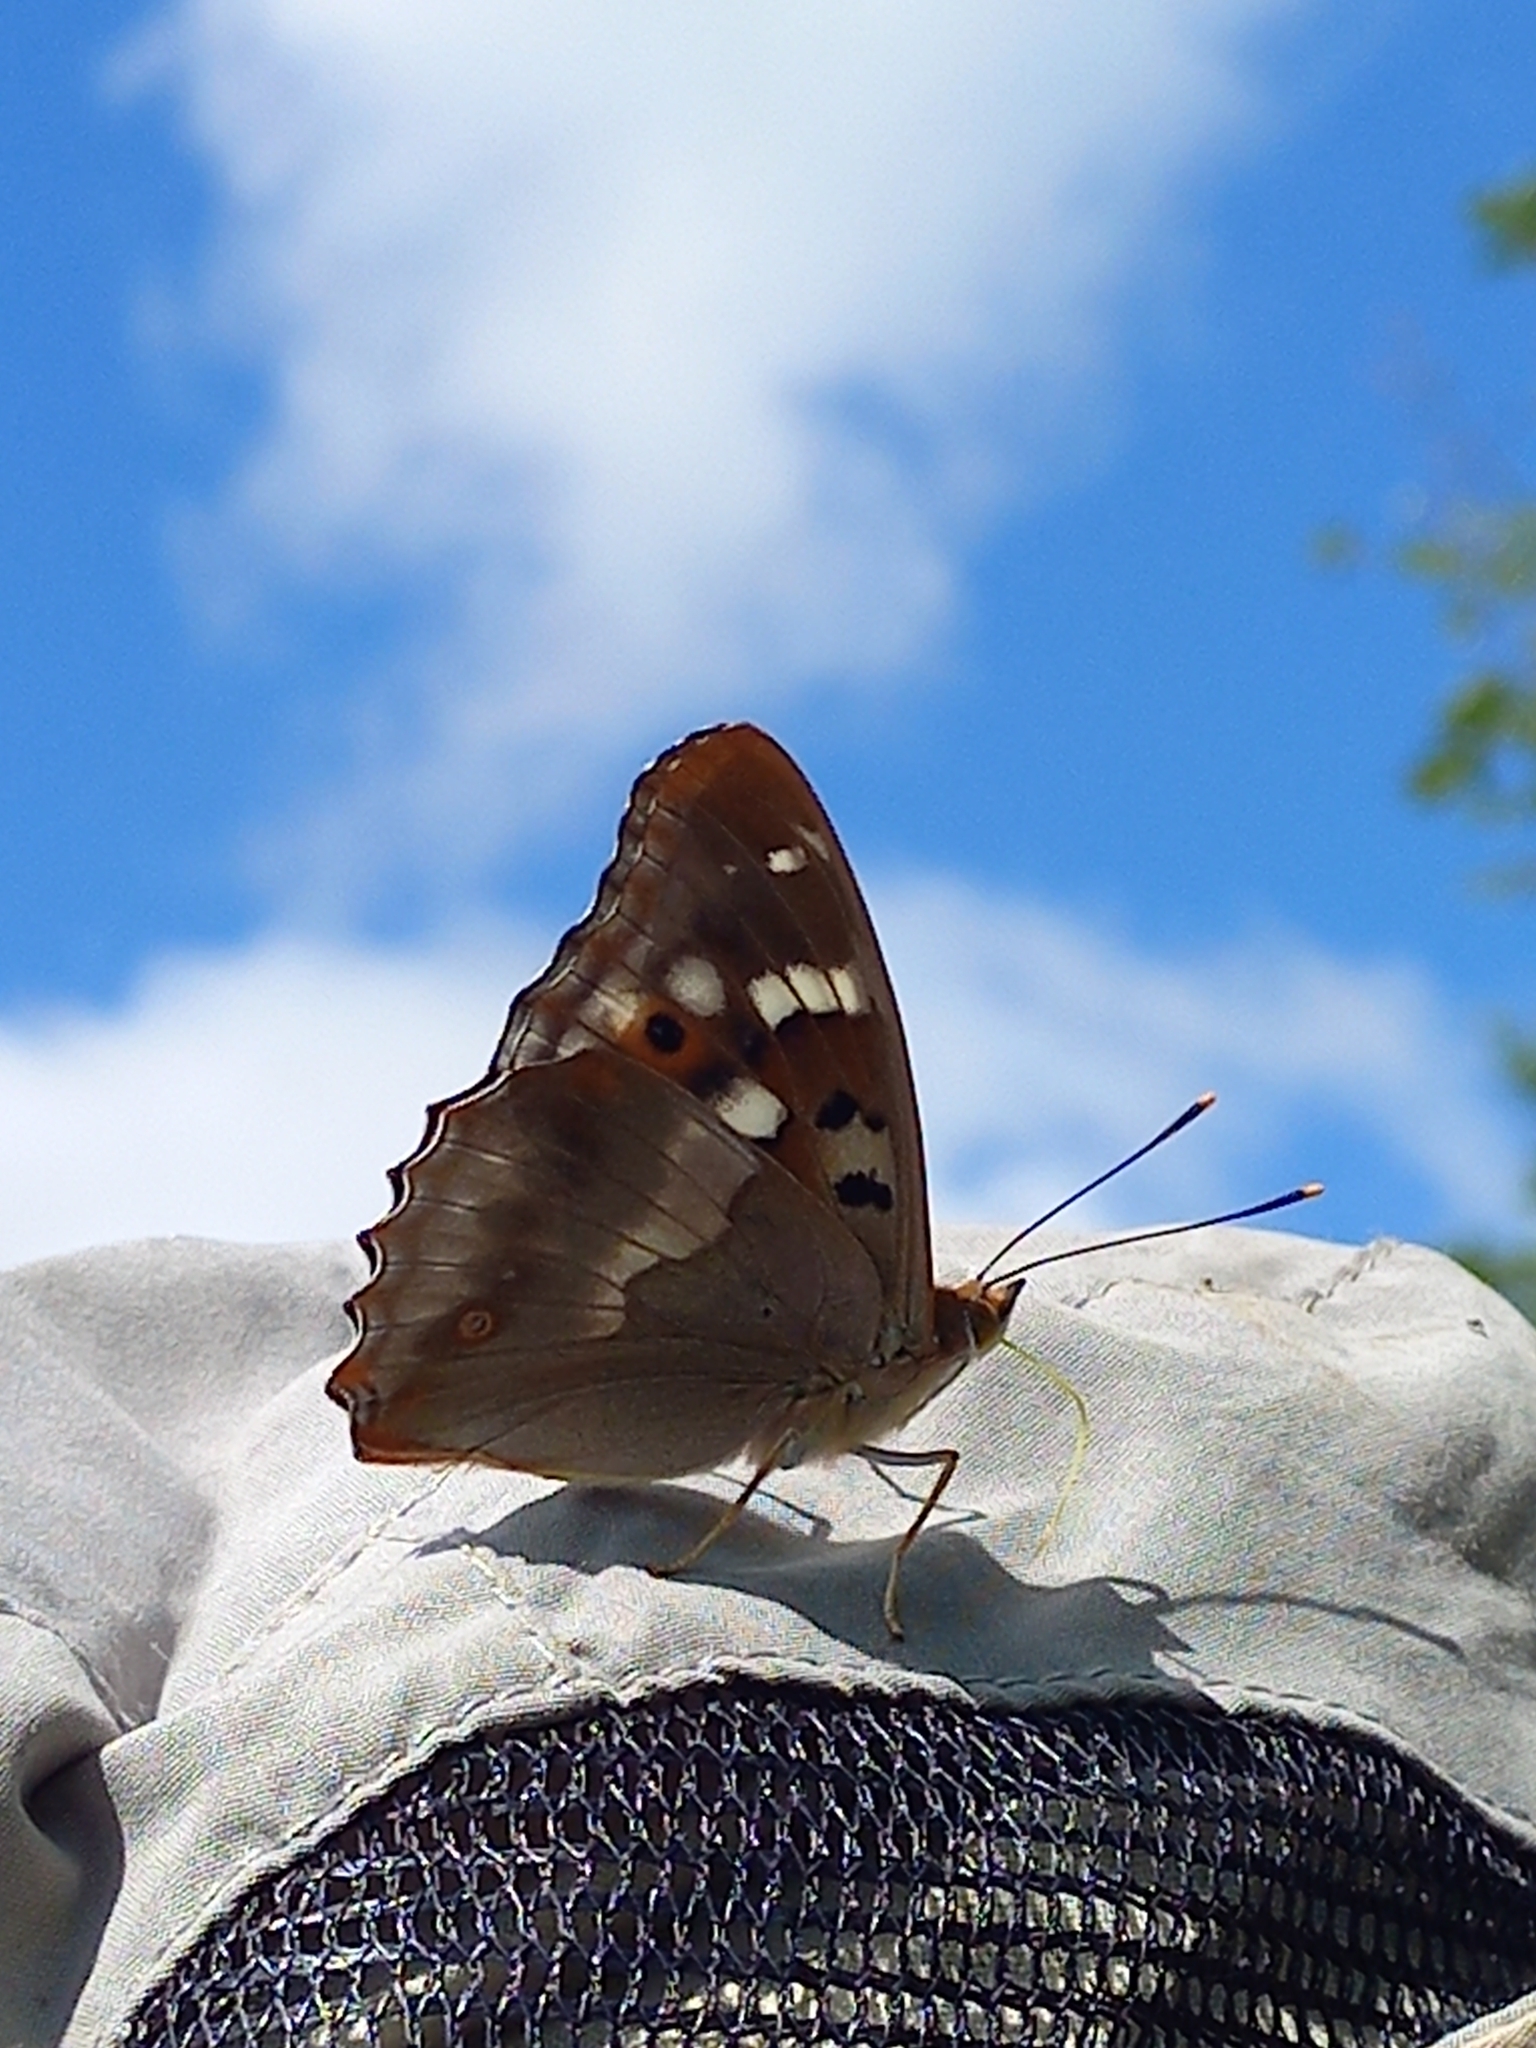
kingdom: Animalia
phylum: Arthropoda
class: Insecta
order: Lepidoptera
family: Nymphalidae
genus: Apatura
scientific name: Apatura ilia
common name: Lesser purple emperor
